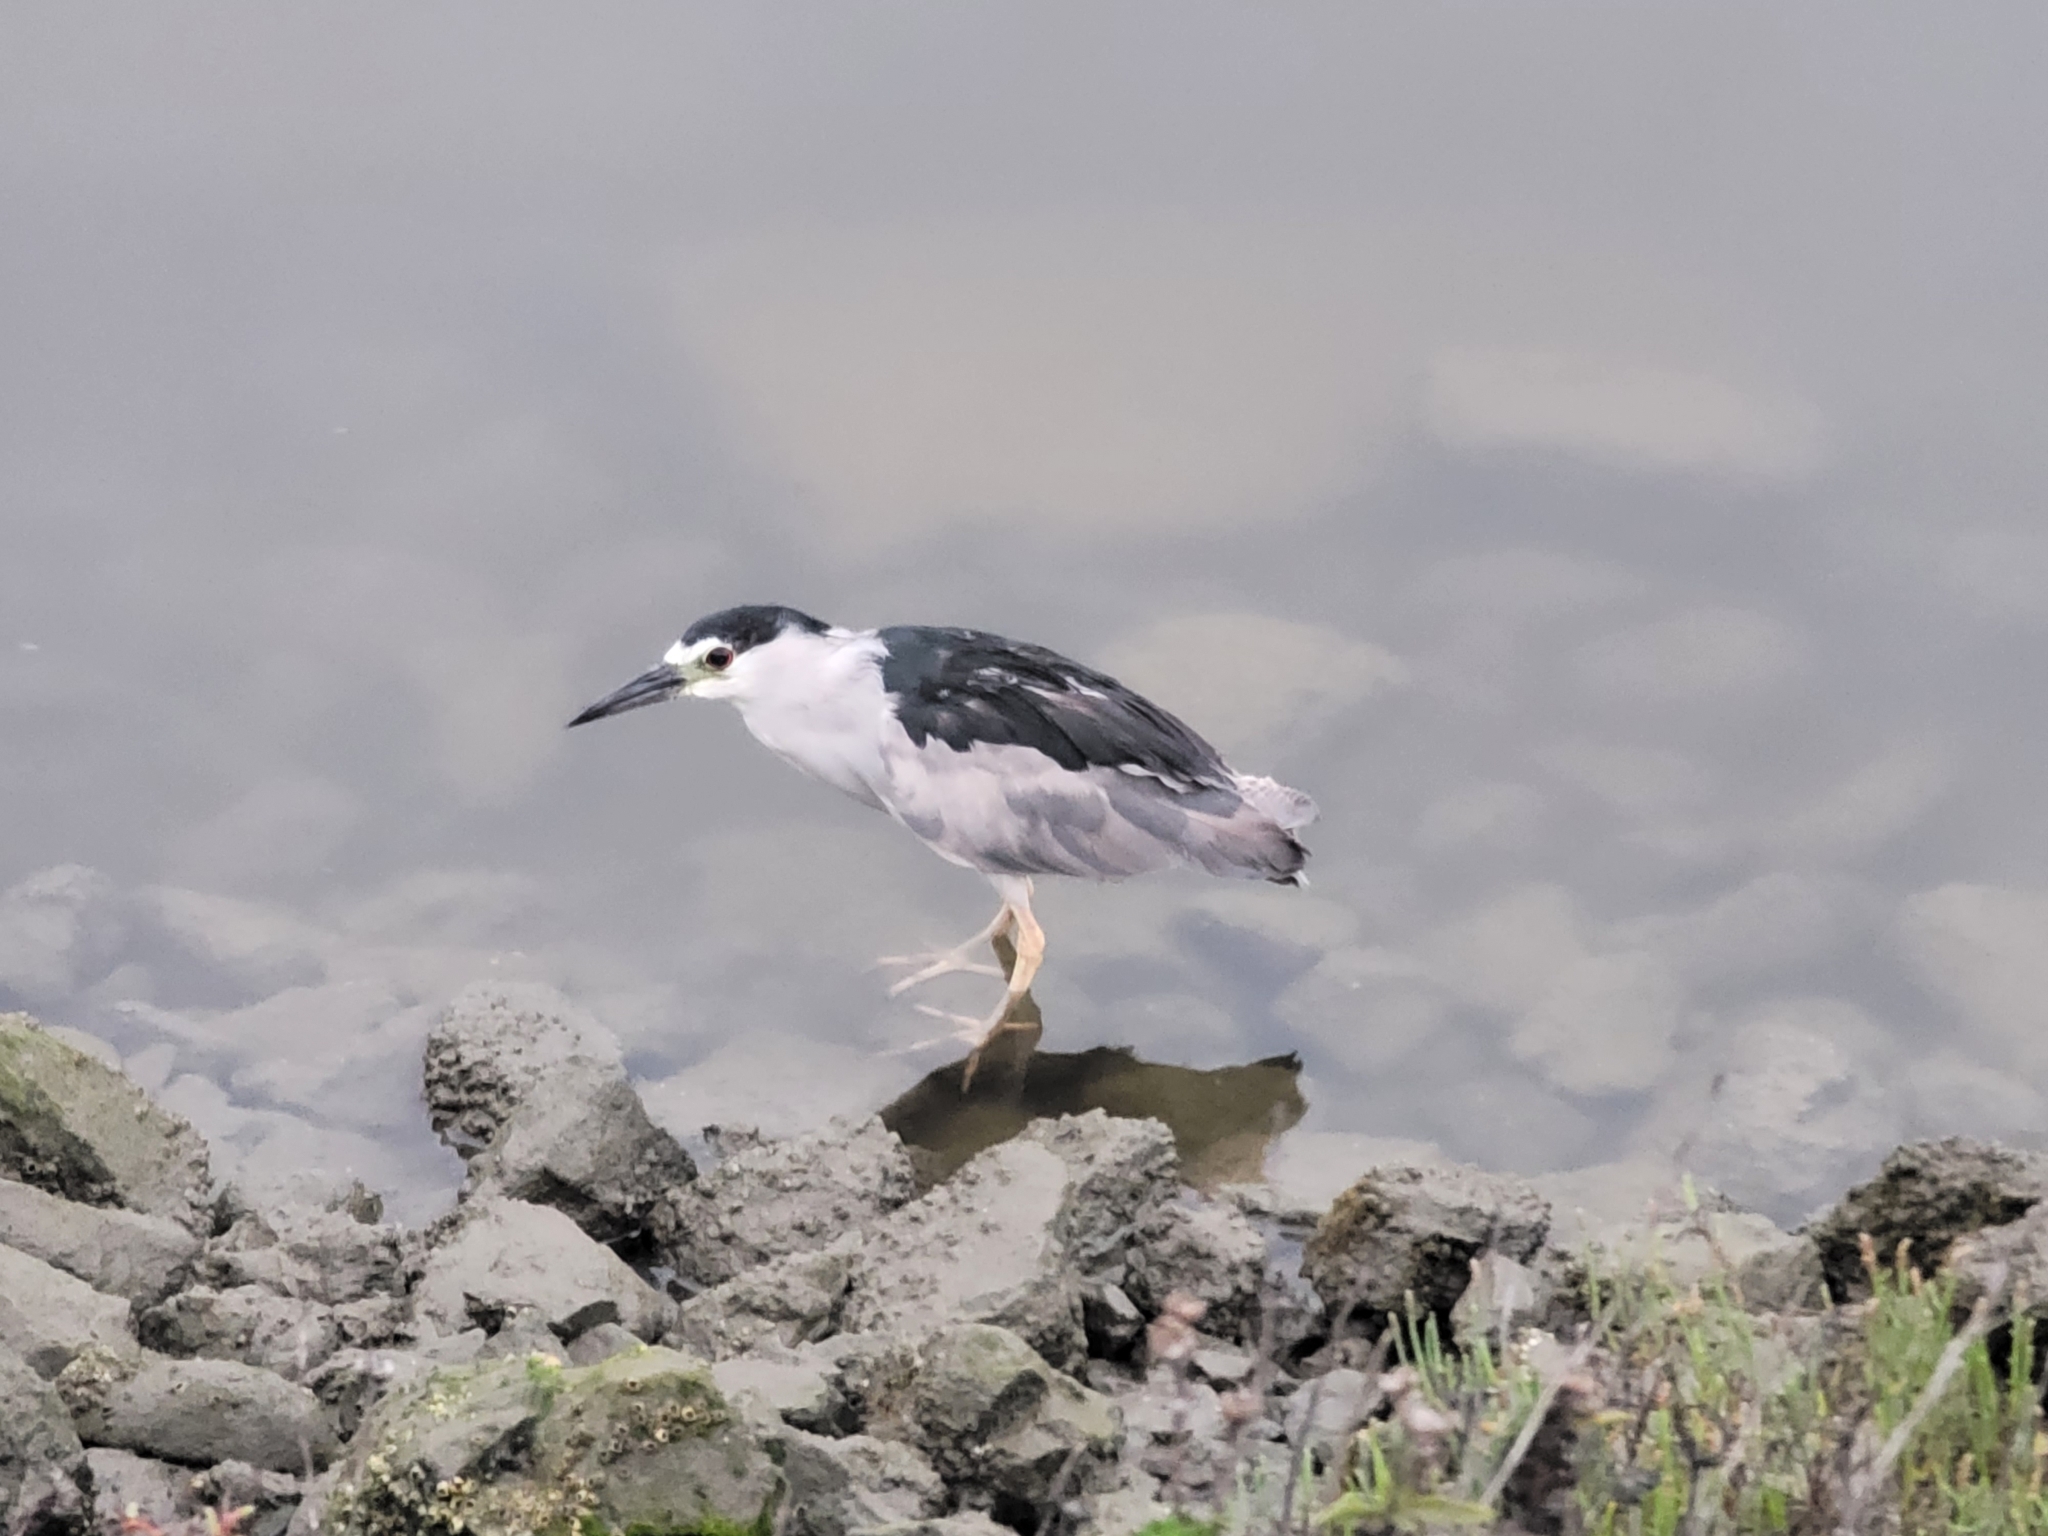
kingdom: Animalia
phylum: Chordata
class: Aves
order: Pelecaniformes
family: Ardeidae
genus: Nycticorax
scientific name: Nycticorax nycticorax
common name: Black-crowned night heron
